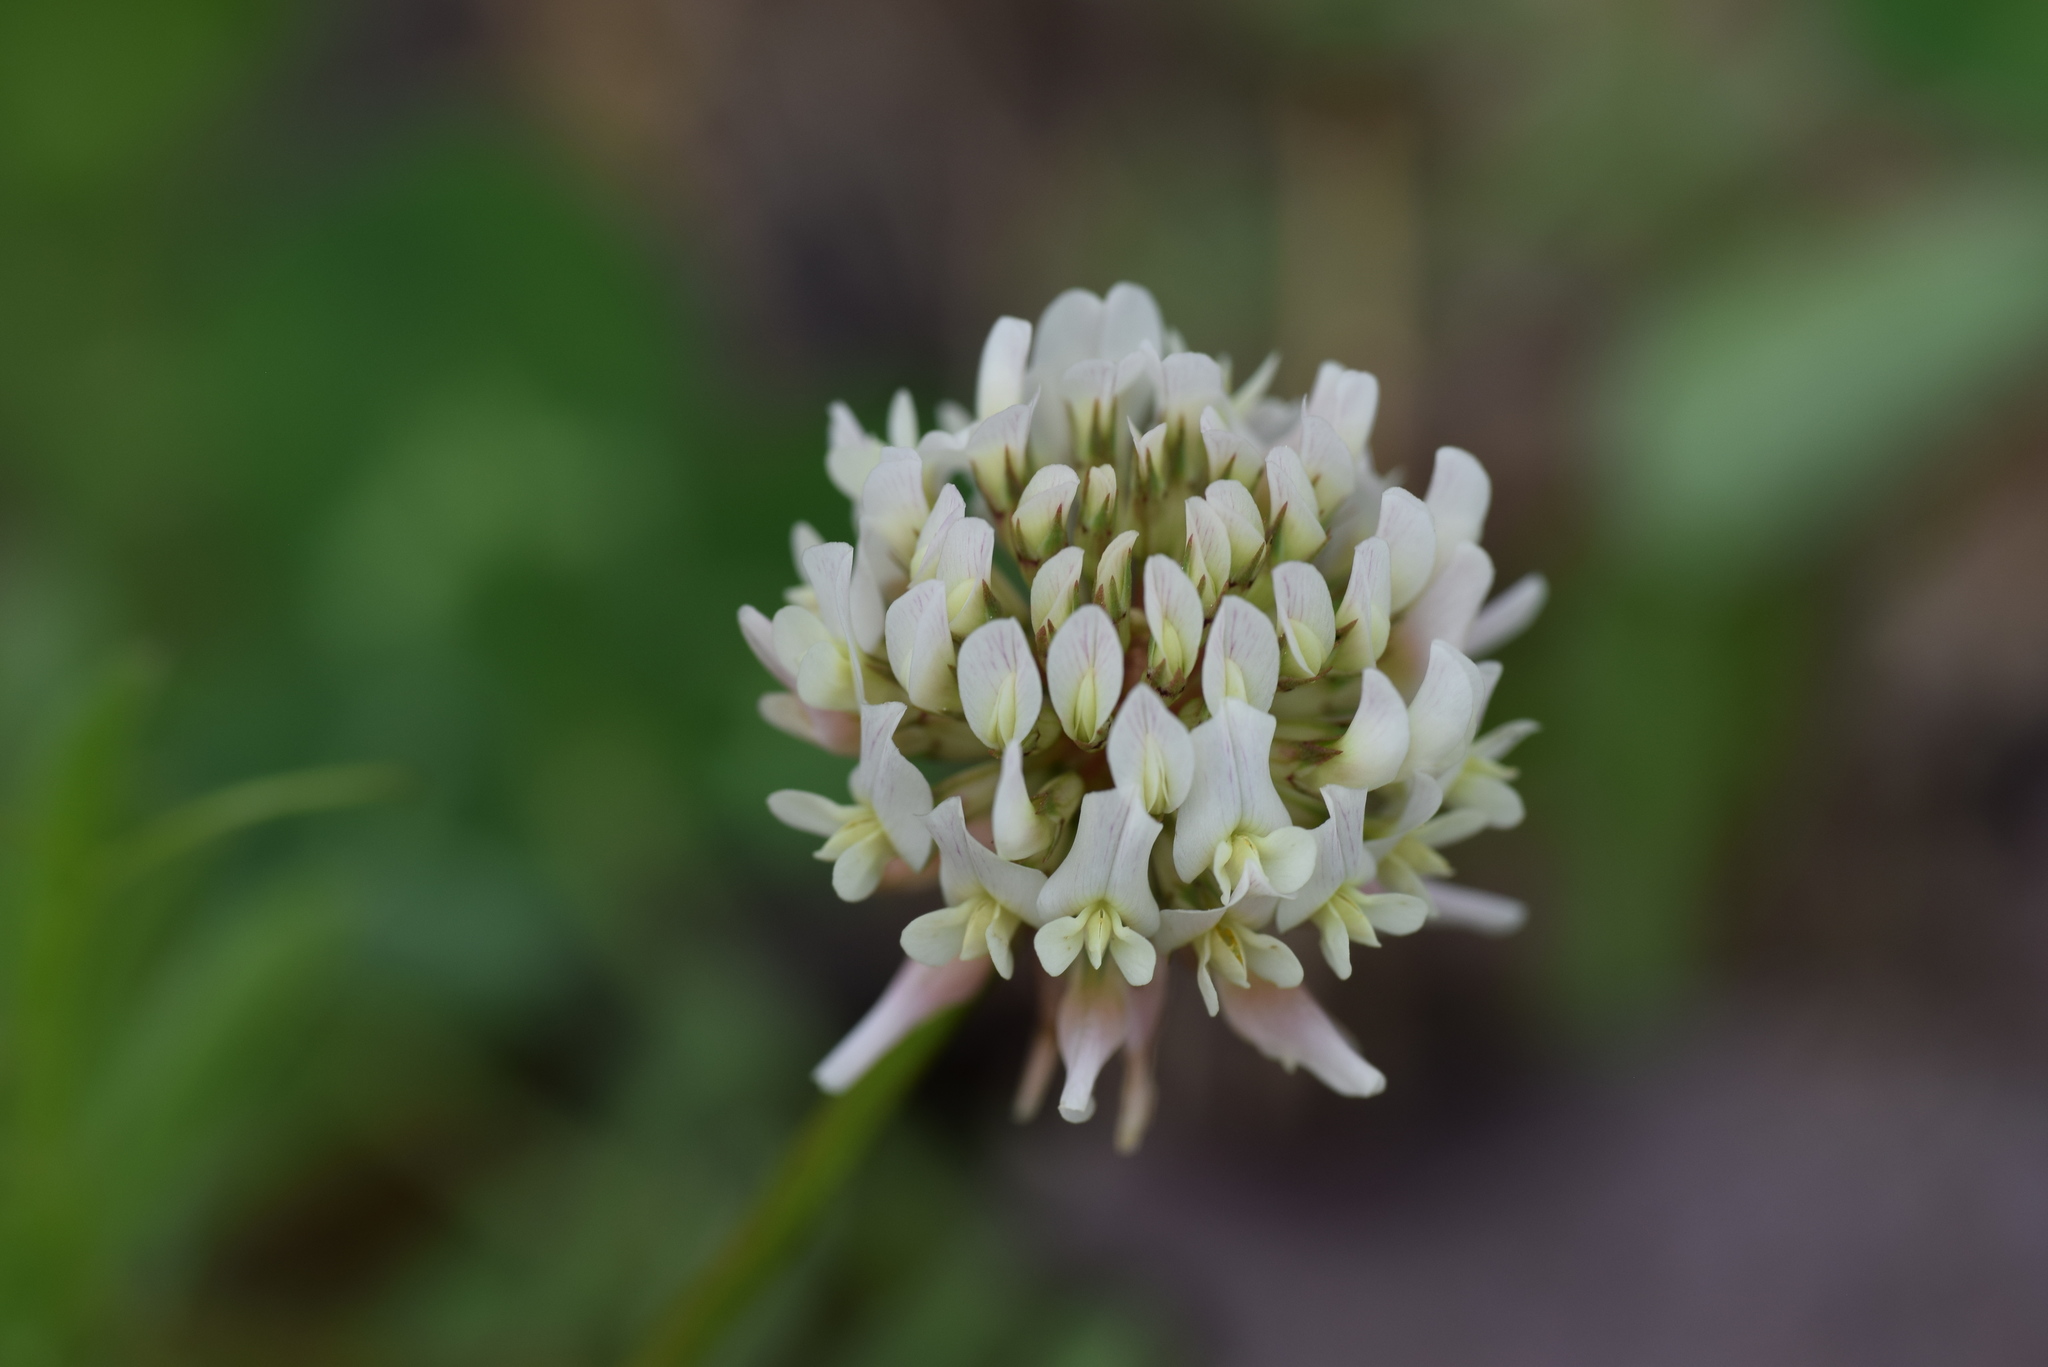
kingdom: Plantae
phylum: Tracheophyta
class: Magnoliopsida
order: Fabales
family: Fabaceae
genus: Trifolium
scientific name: Trifolium repens
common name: White clover
